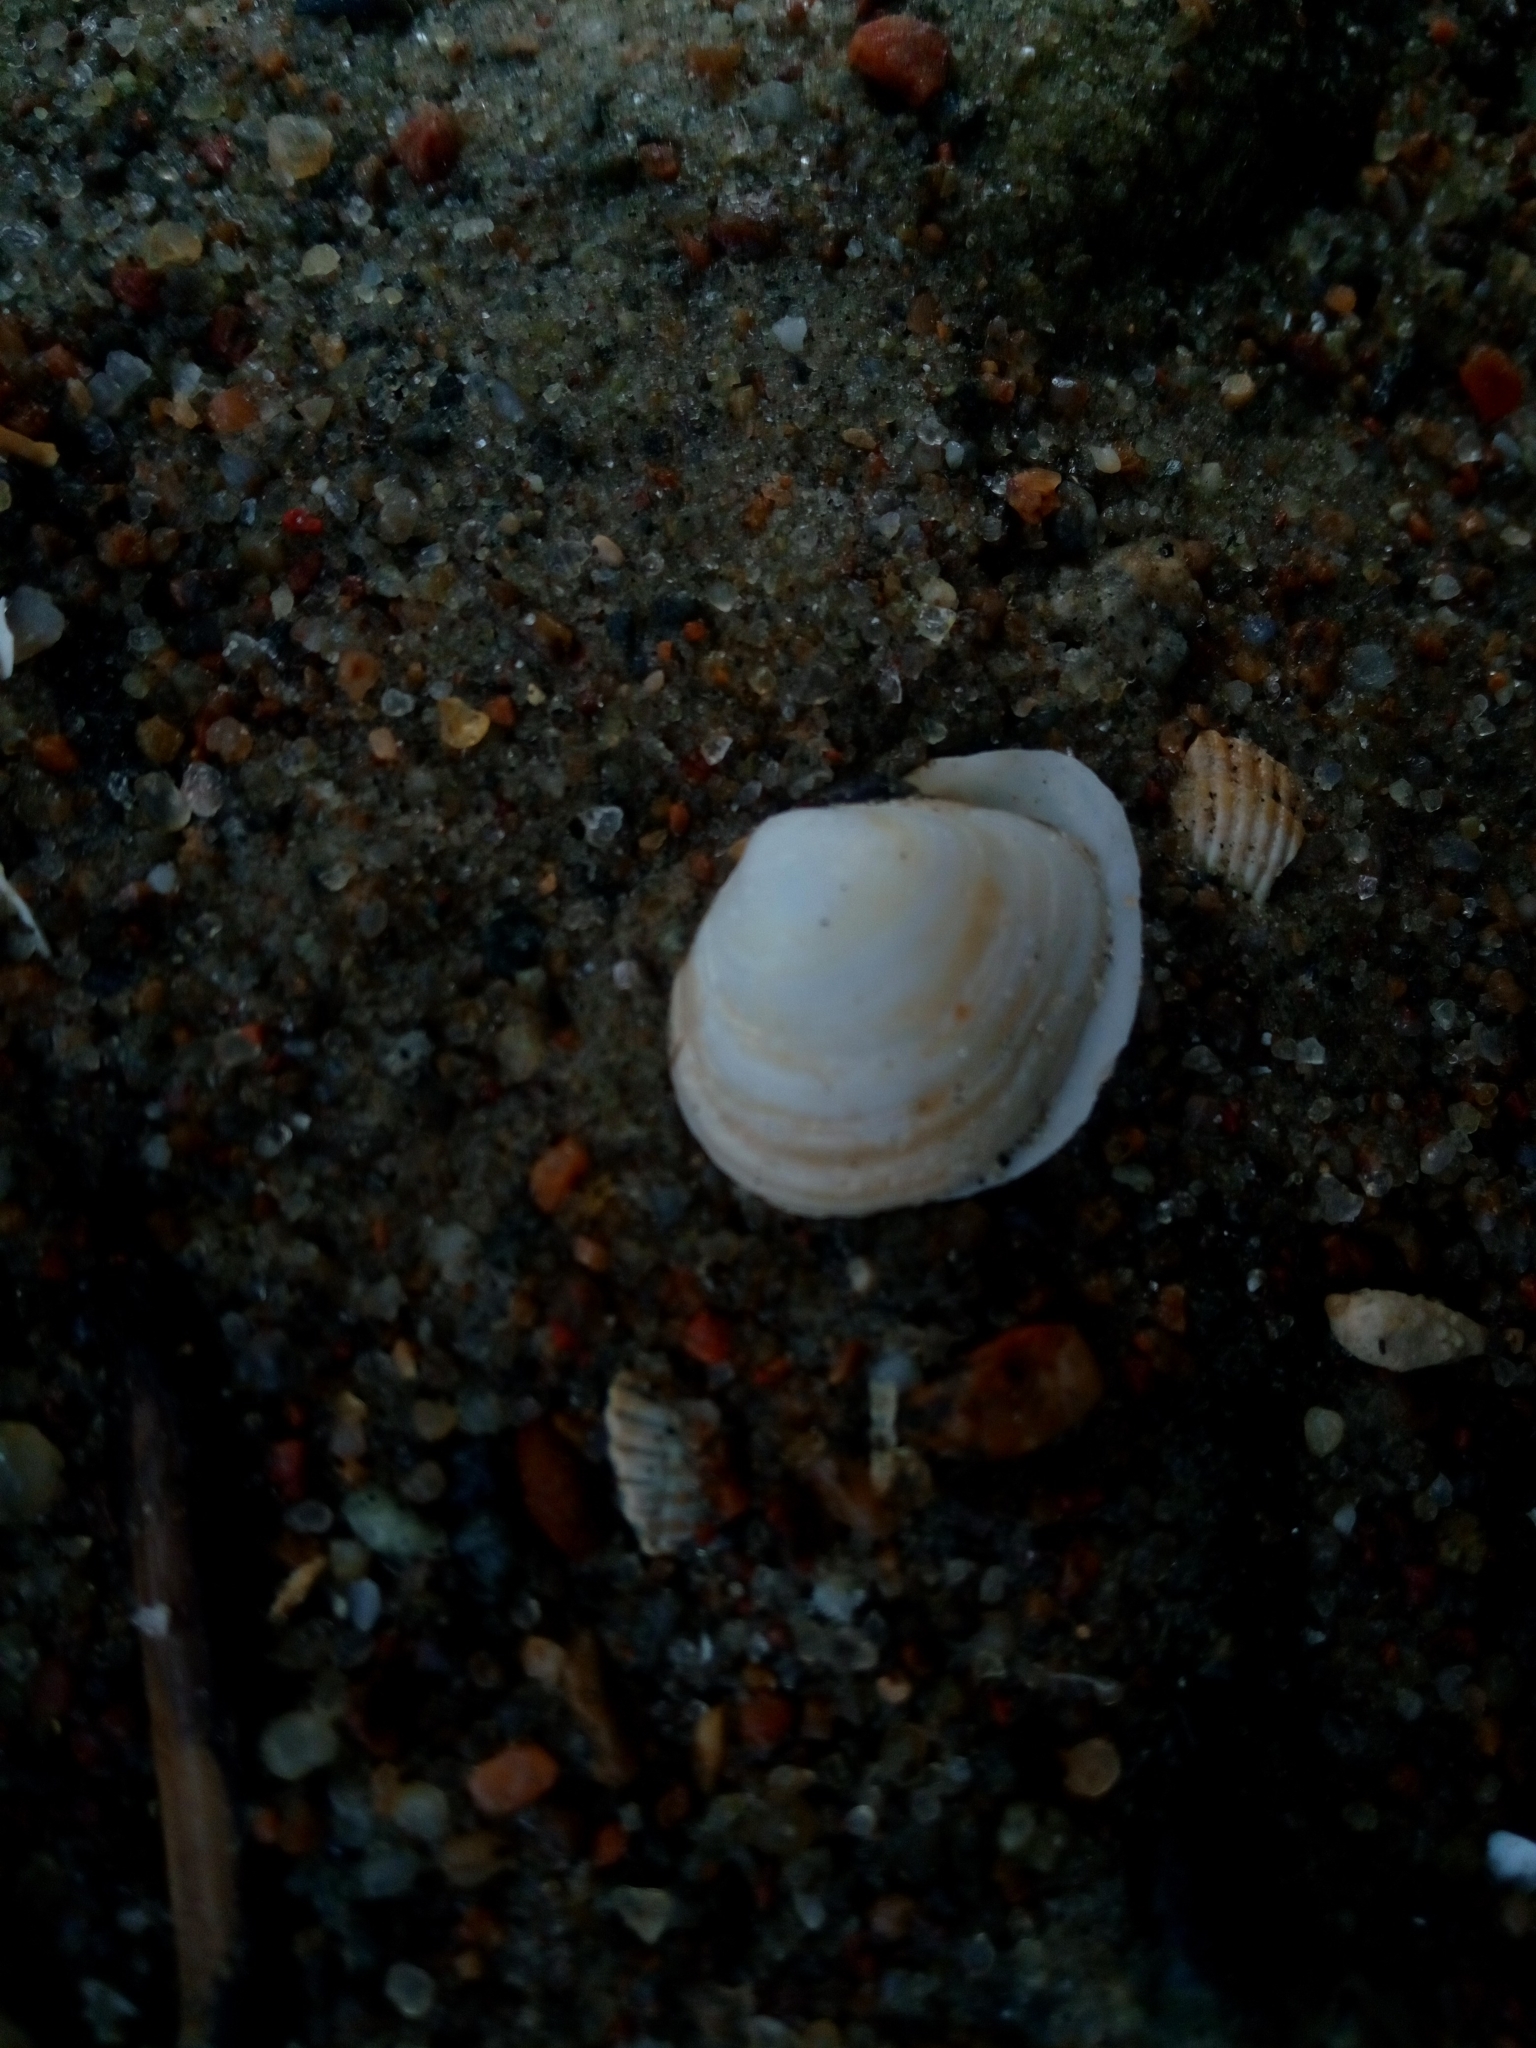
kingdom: Animalia
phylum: Mollusca
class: Bivalvia
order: Cardiida
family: Tellinidae
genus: Macoma
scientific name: Macoma balthica
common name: Baltic tellin
